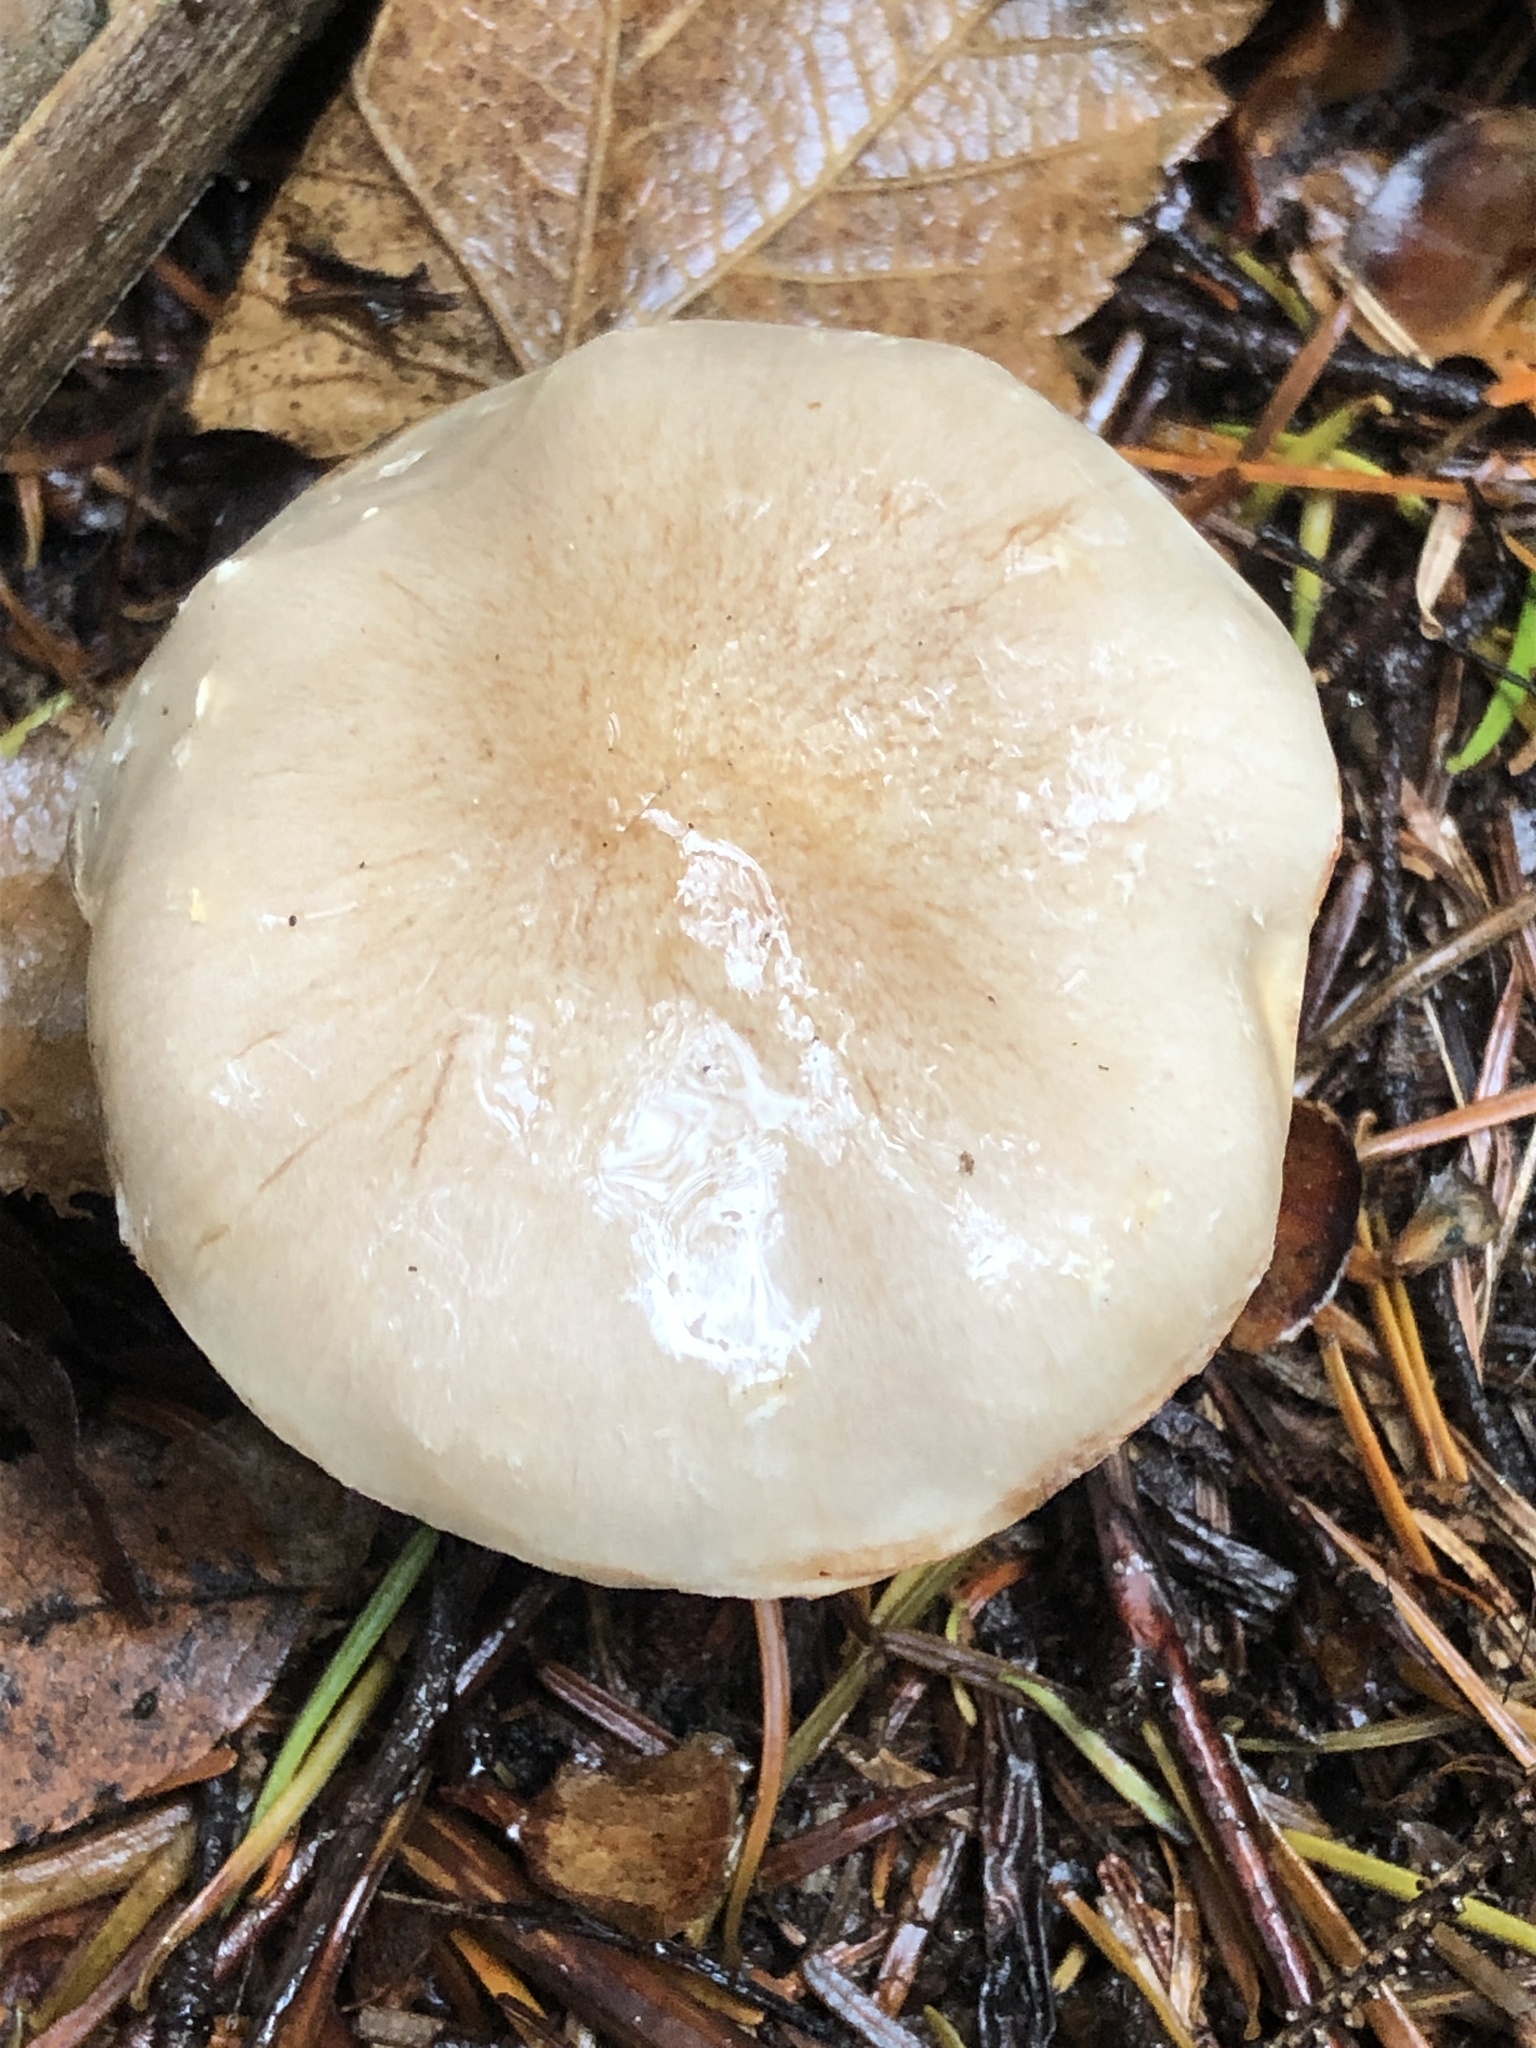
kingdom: Fungi
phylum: Basidiomycota
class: Agaricomycetes
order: Agaricales
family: Strophariaceae
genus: Pholiota
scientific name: Pholiota lenta
